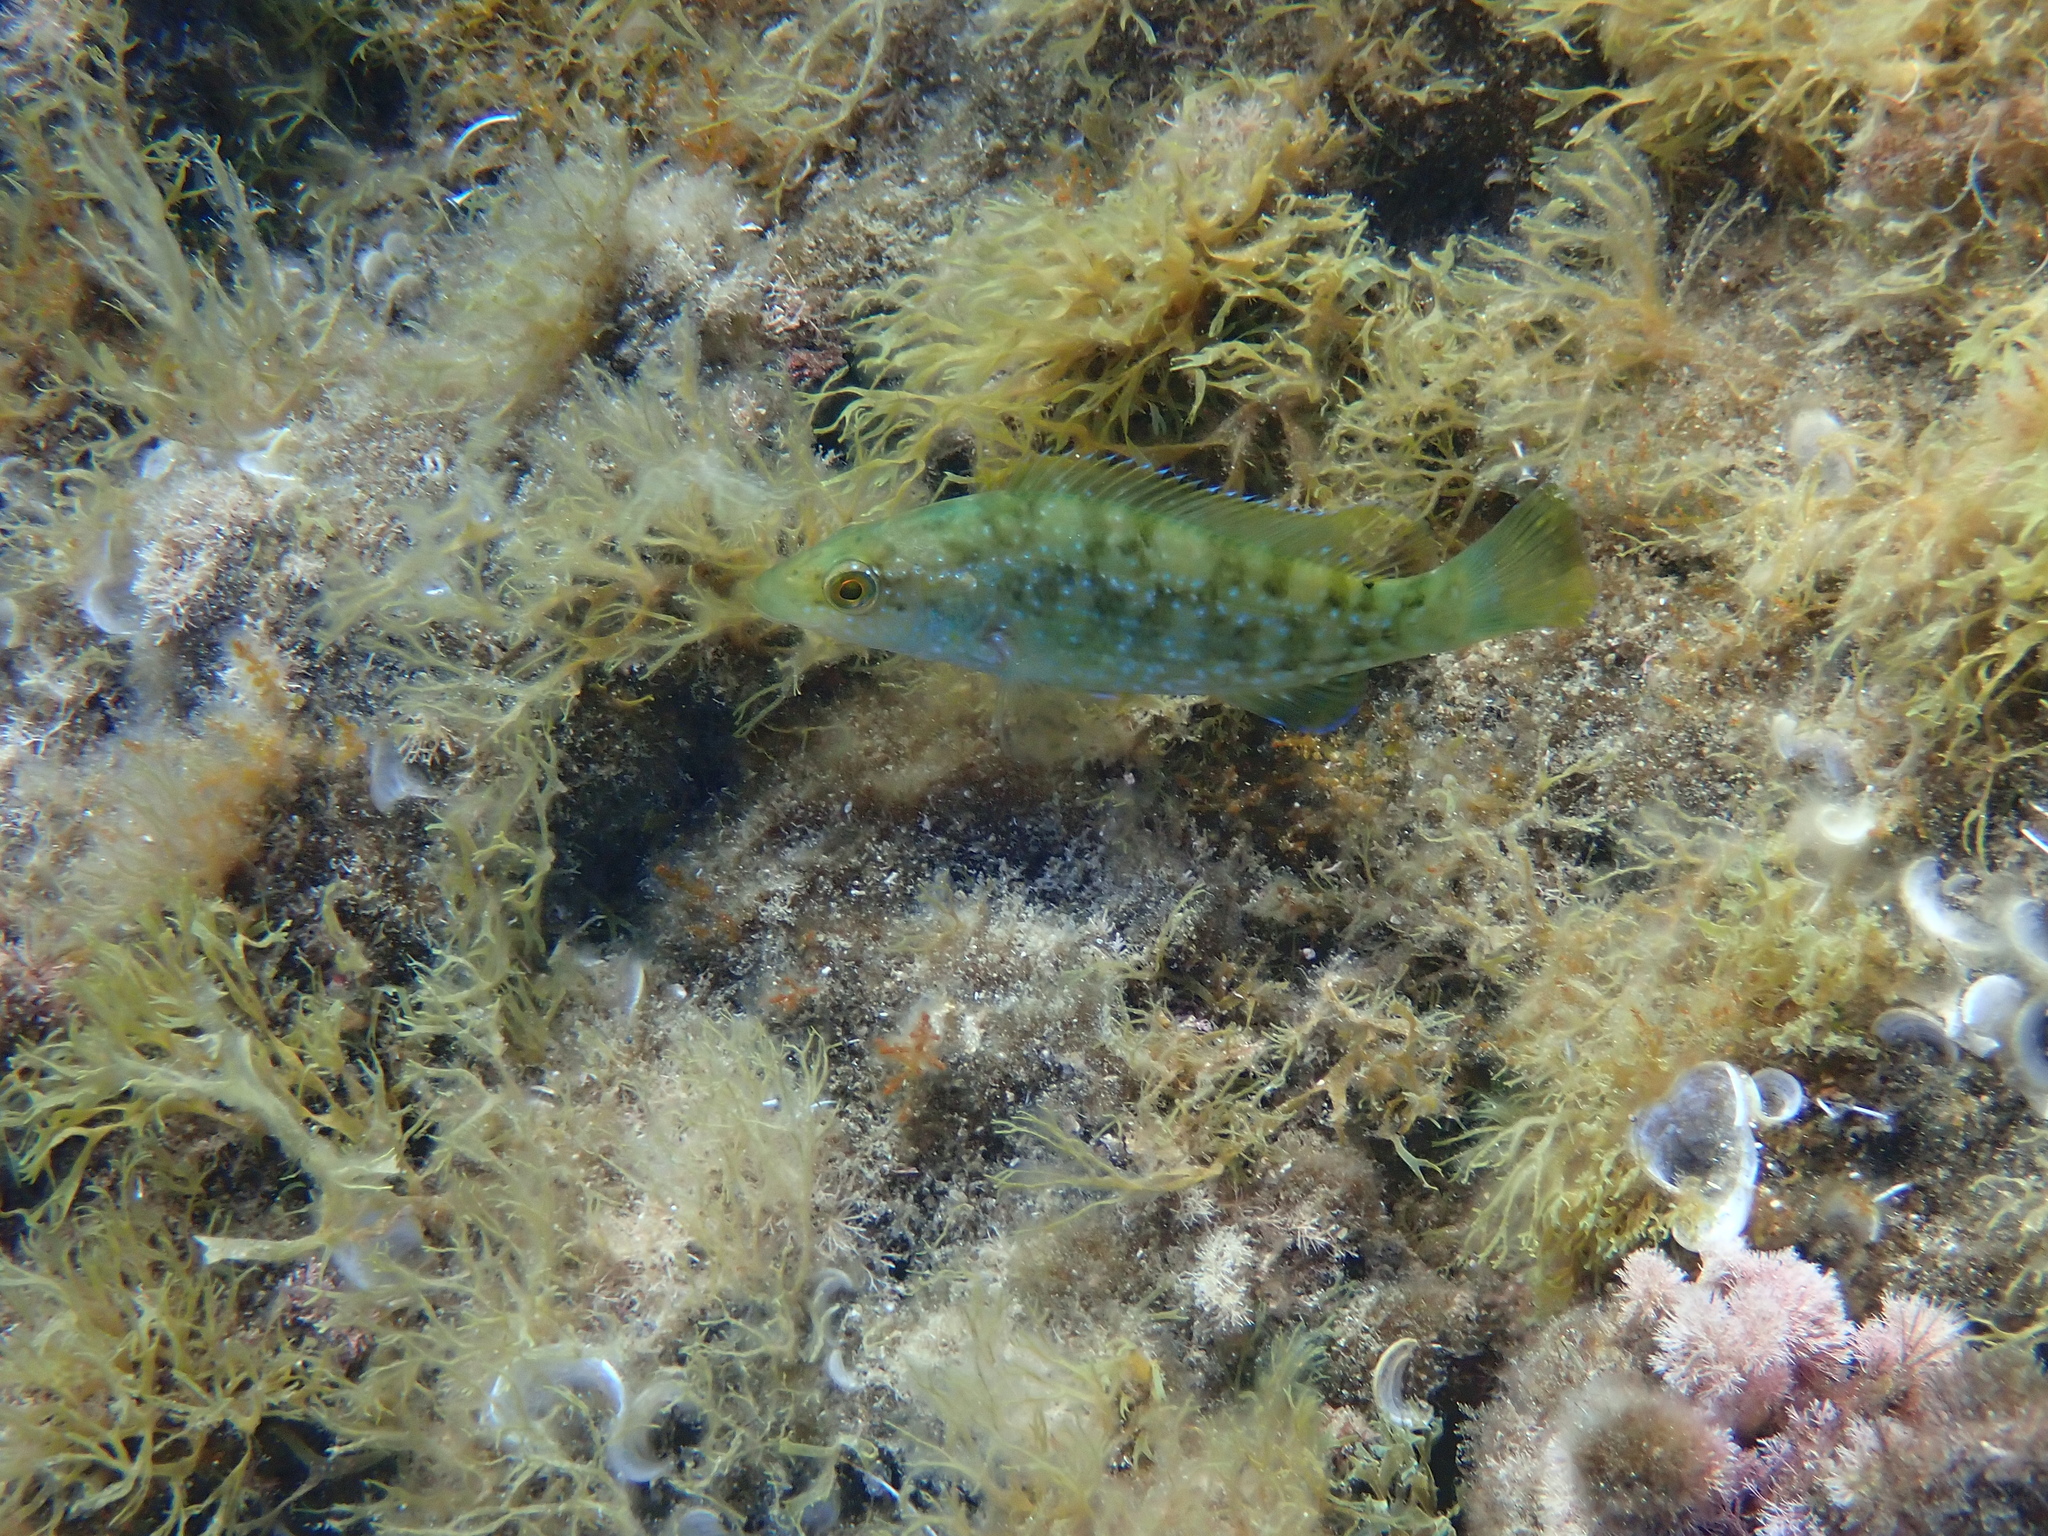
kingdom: Animalia
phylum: Chordata
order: Perciformes
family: Labridae
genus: Labrus
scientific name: Labrus merula
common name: Brown wrasse
